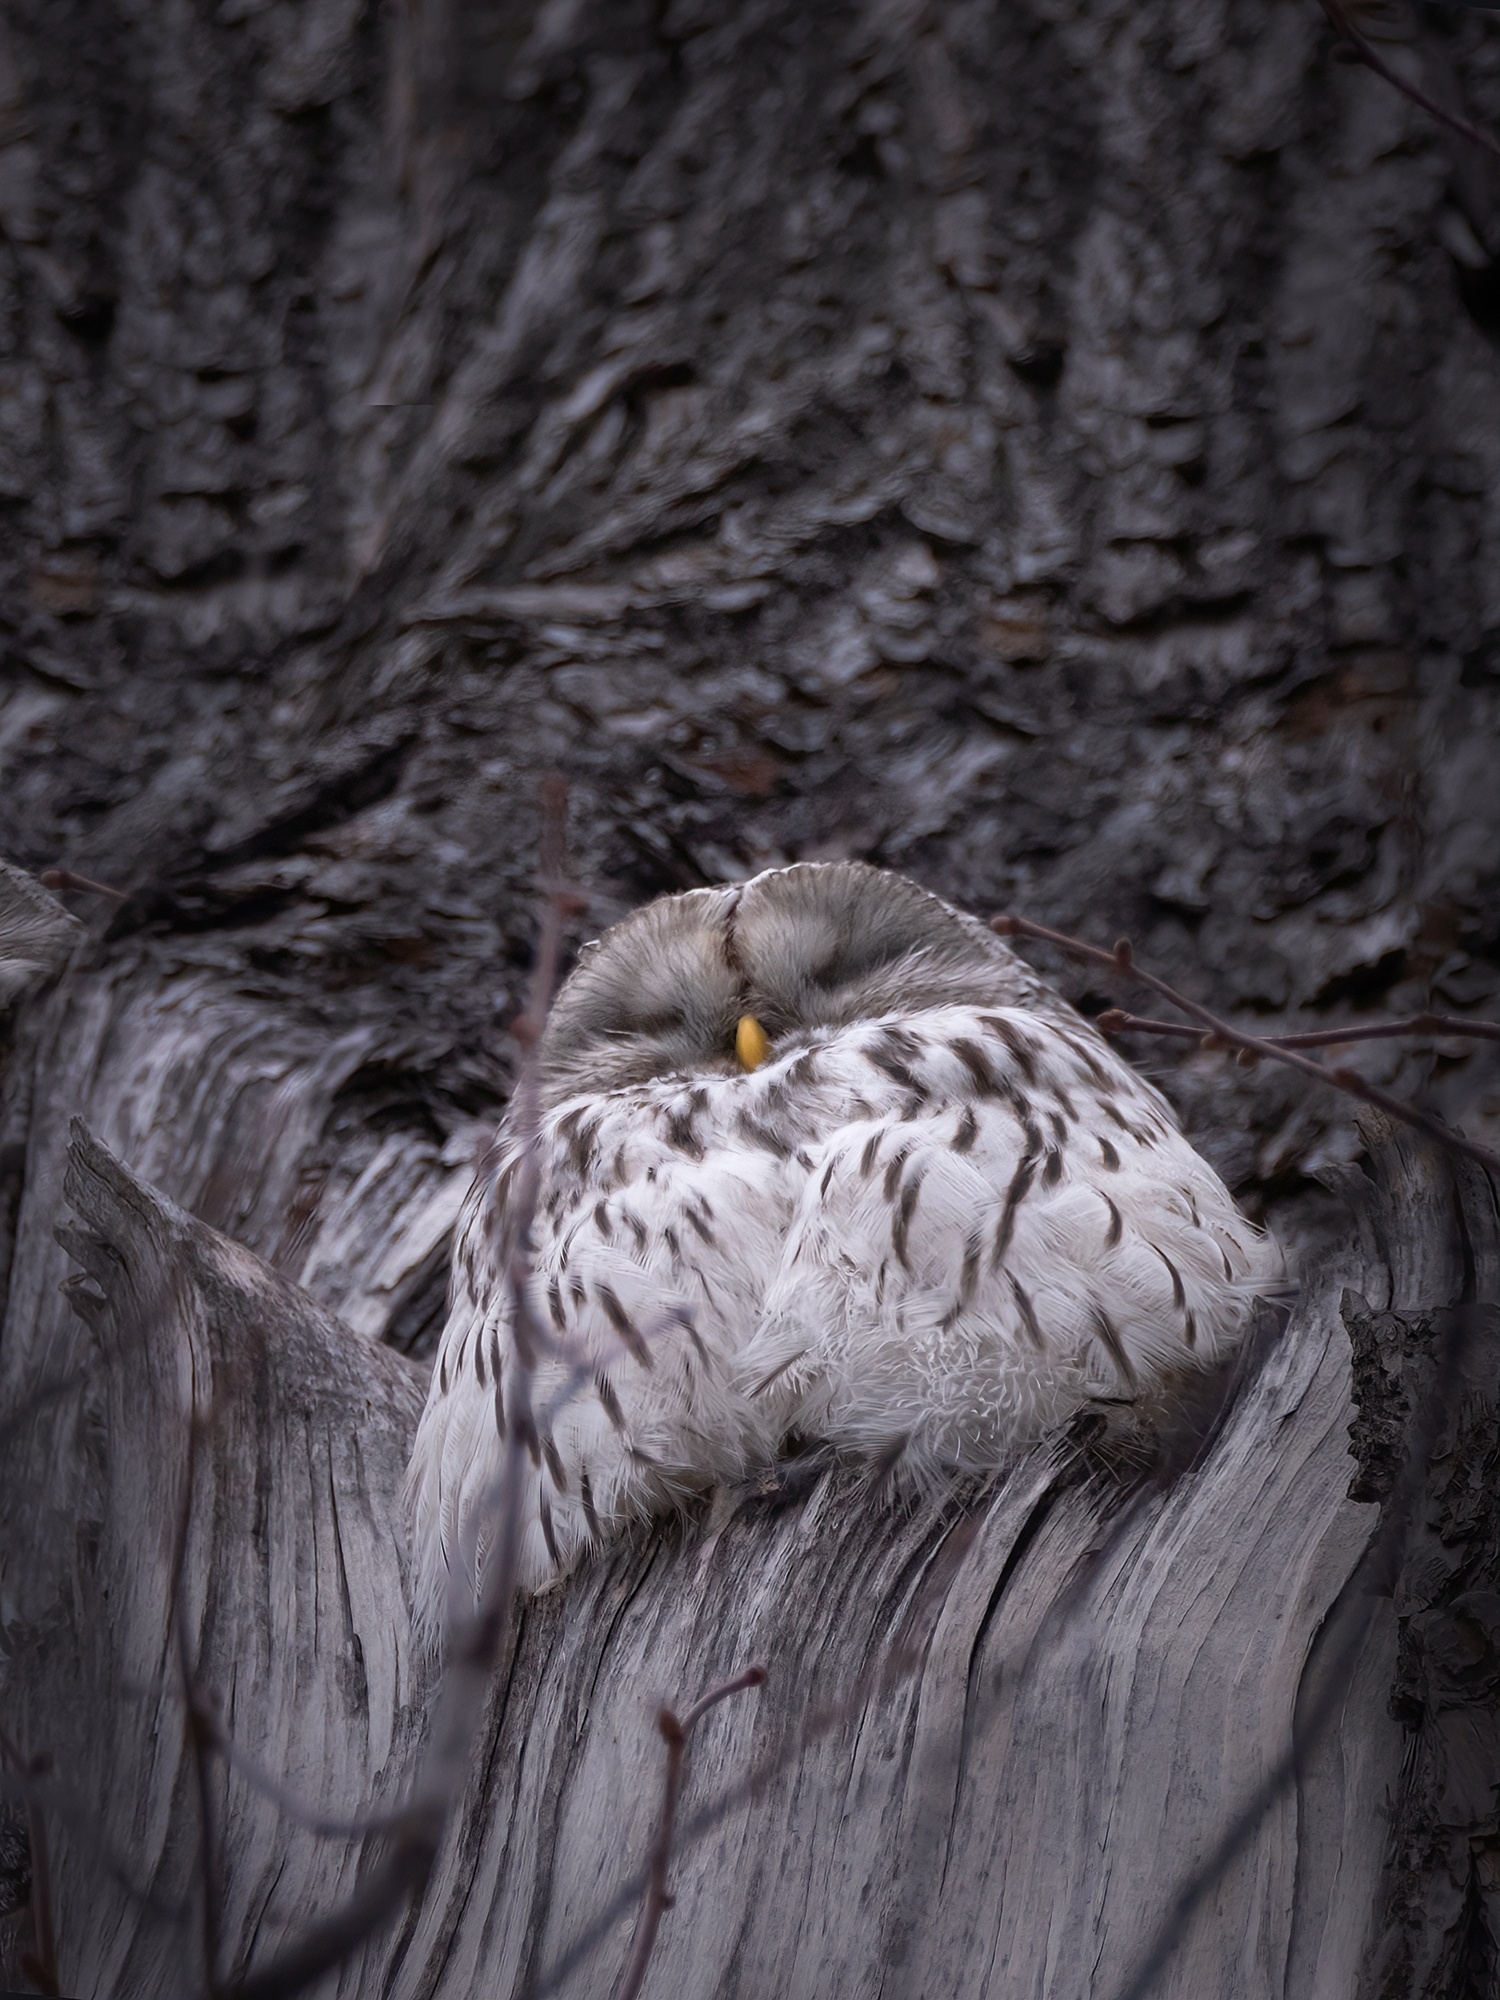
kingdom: Animalia
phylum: Chordata
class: Aves
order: Strigiformes
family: Strigidae
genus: Strix
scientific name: Strix uralensis
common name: Ural owl
